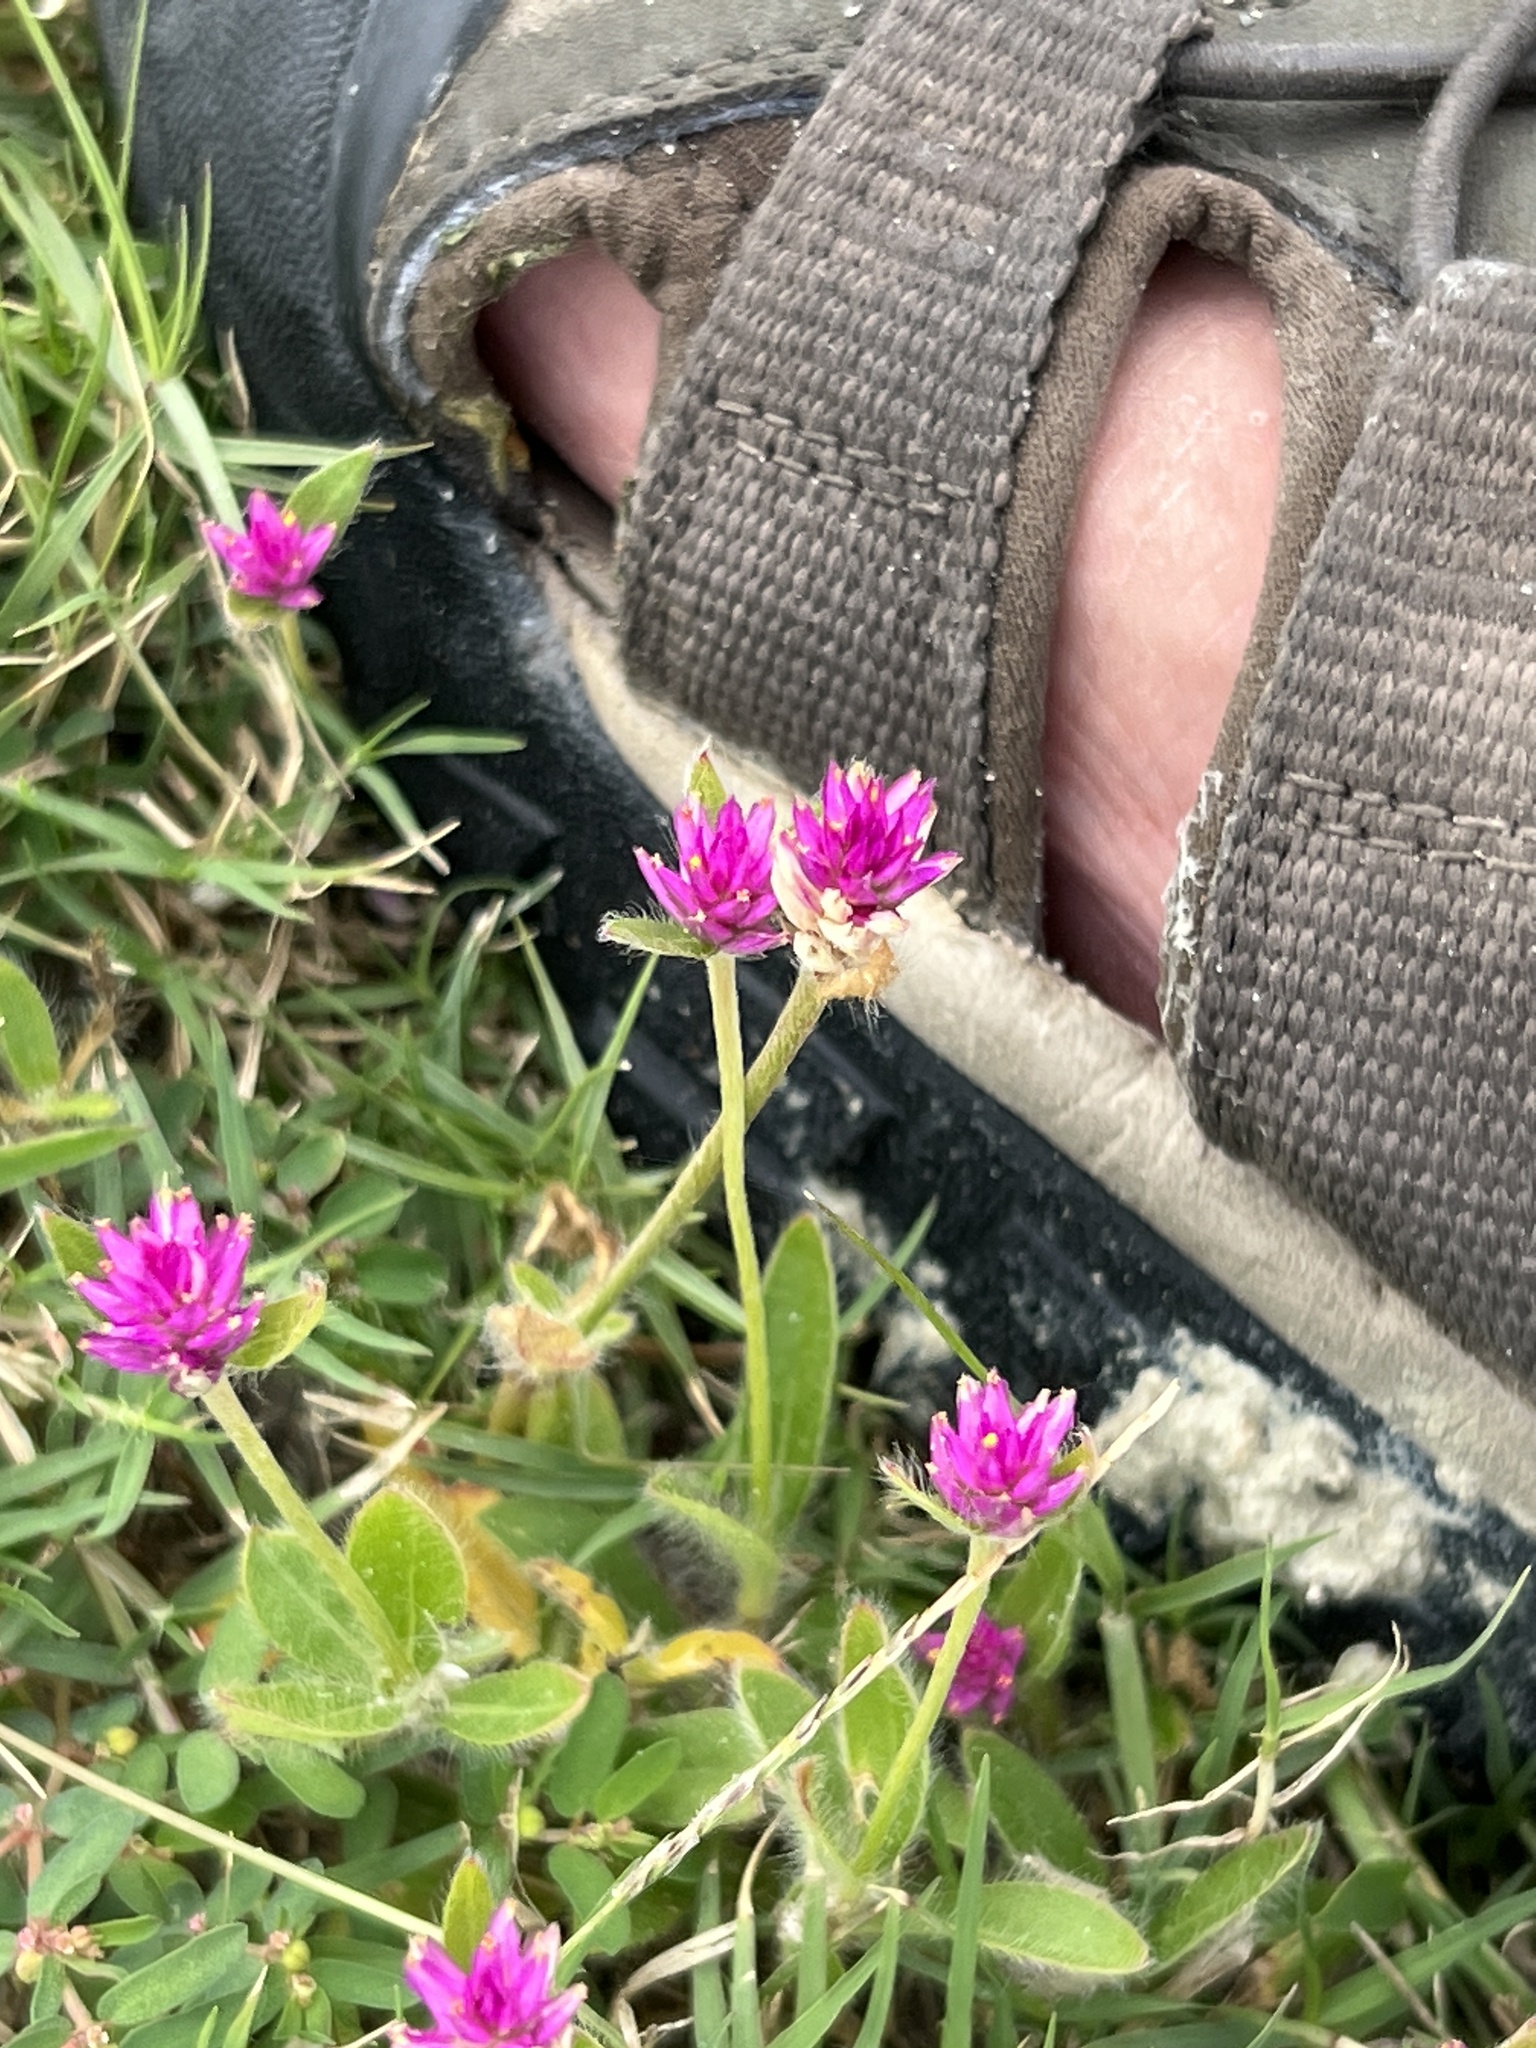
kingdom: Plantae
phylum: Tracheophyta
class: Magnoliopsida
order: Caryophyllales
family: Amaranthaceae
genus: Gomphrena
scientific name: Gomphrena globosa
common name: Common globe amaranth
